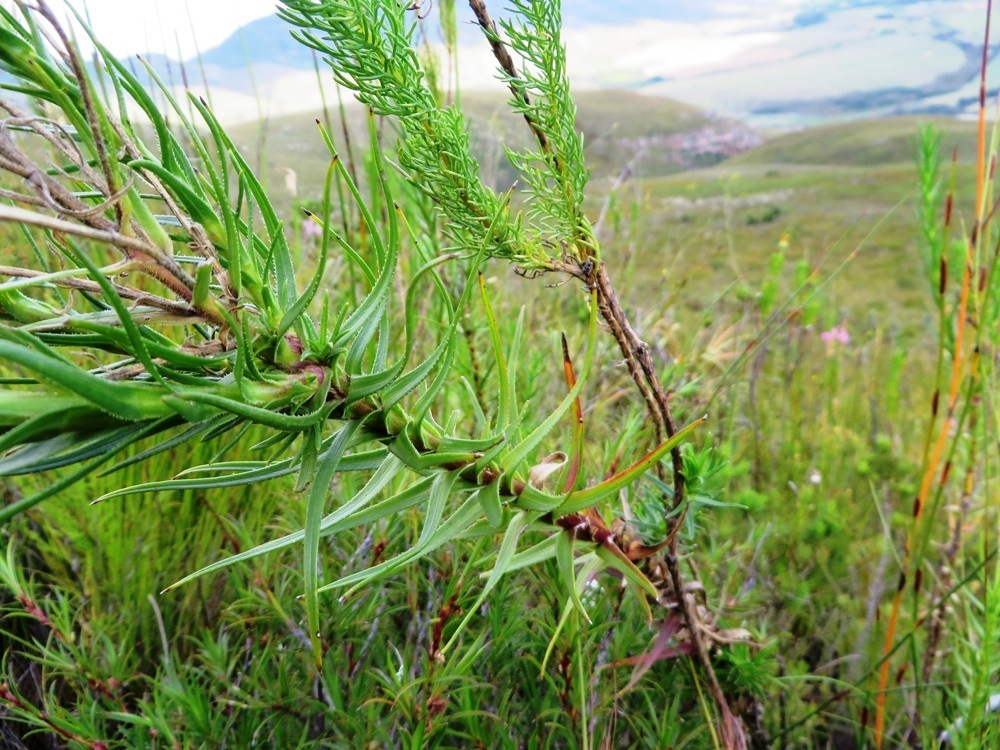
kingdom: Plantae
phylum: Tracheophyta
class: Magnoliopsida
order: Asterales
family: Asteraceae
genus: Zyrphelis
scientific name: Zyrphelis nervosa
